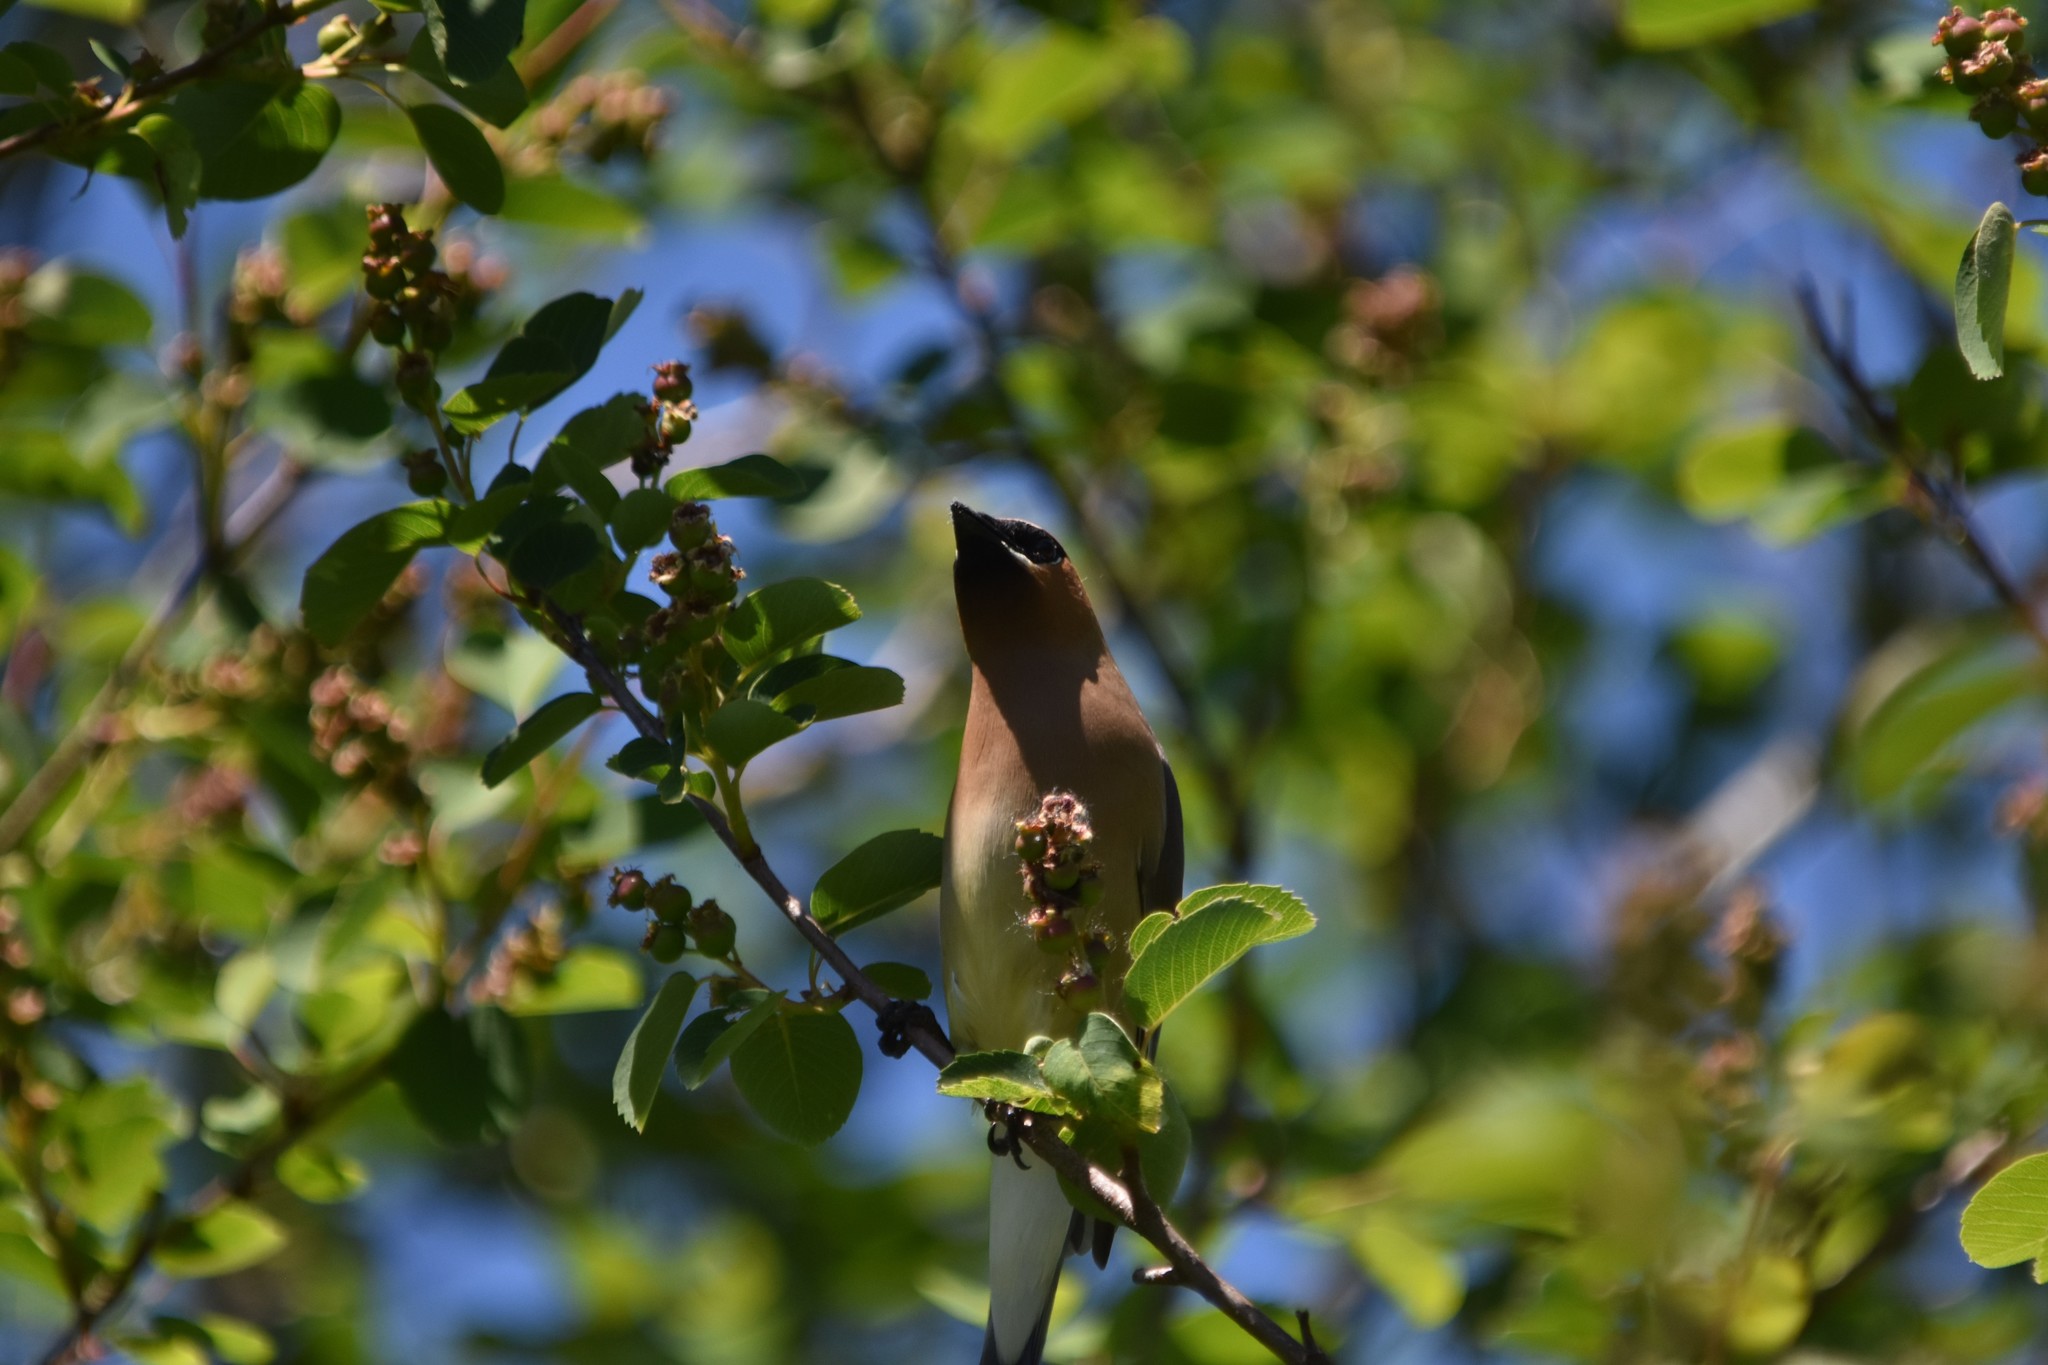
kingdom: Animalia
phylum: Chordata
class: Aves
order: Passeriformes
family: Bombycillidae
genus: Bombycilla
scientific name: Bombycilla cedrorum
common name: Cedar waxwing
